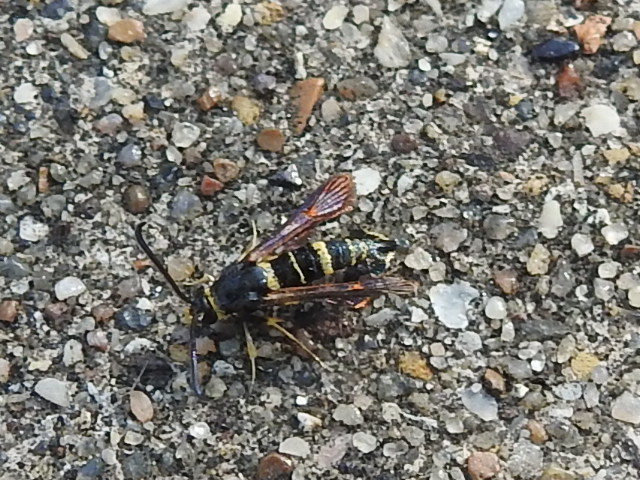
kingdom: Animalia
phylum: Arthropoda
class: Insecta
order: Lepidoptera
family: Sesiidae
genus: Synanthedon
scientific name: Synanthedon decipiens
